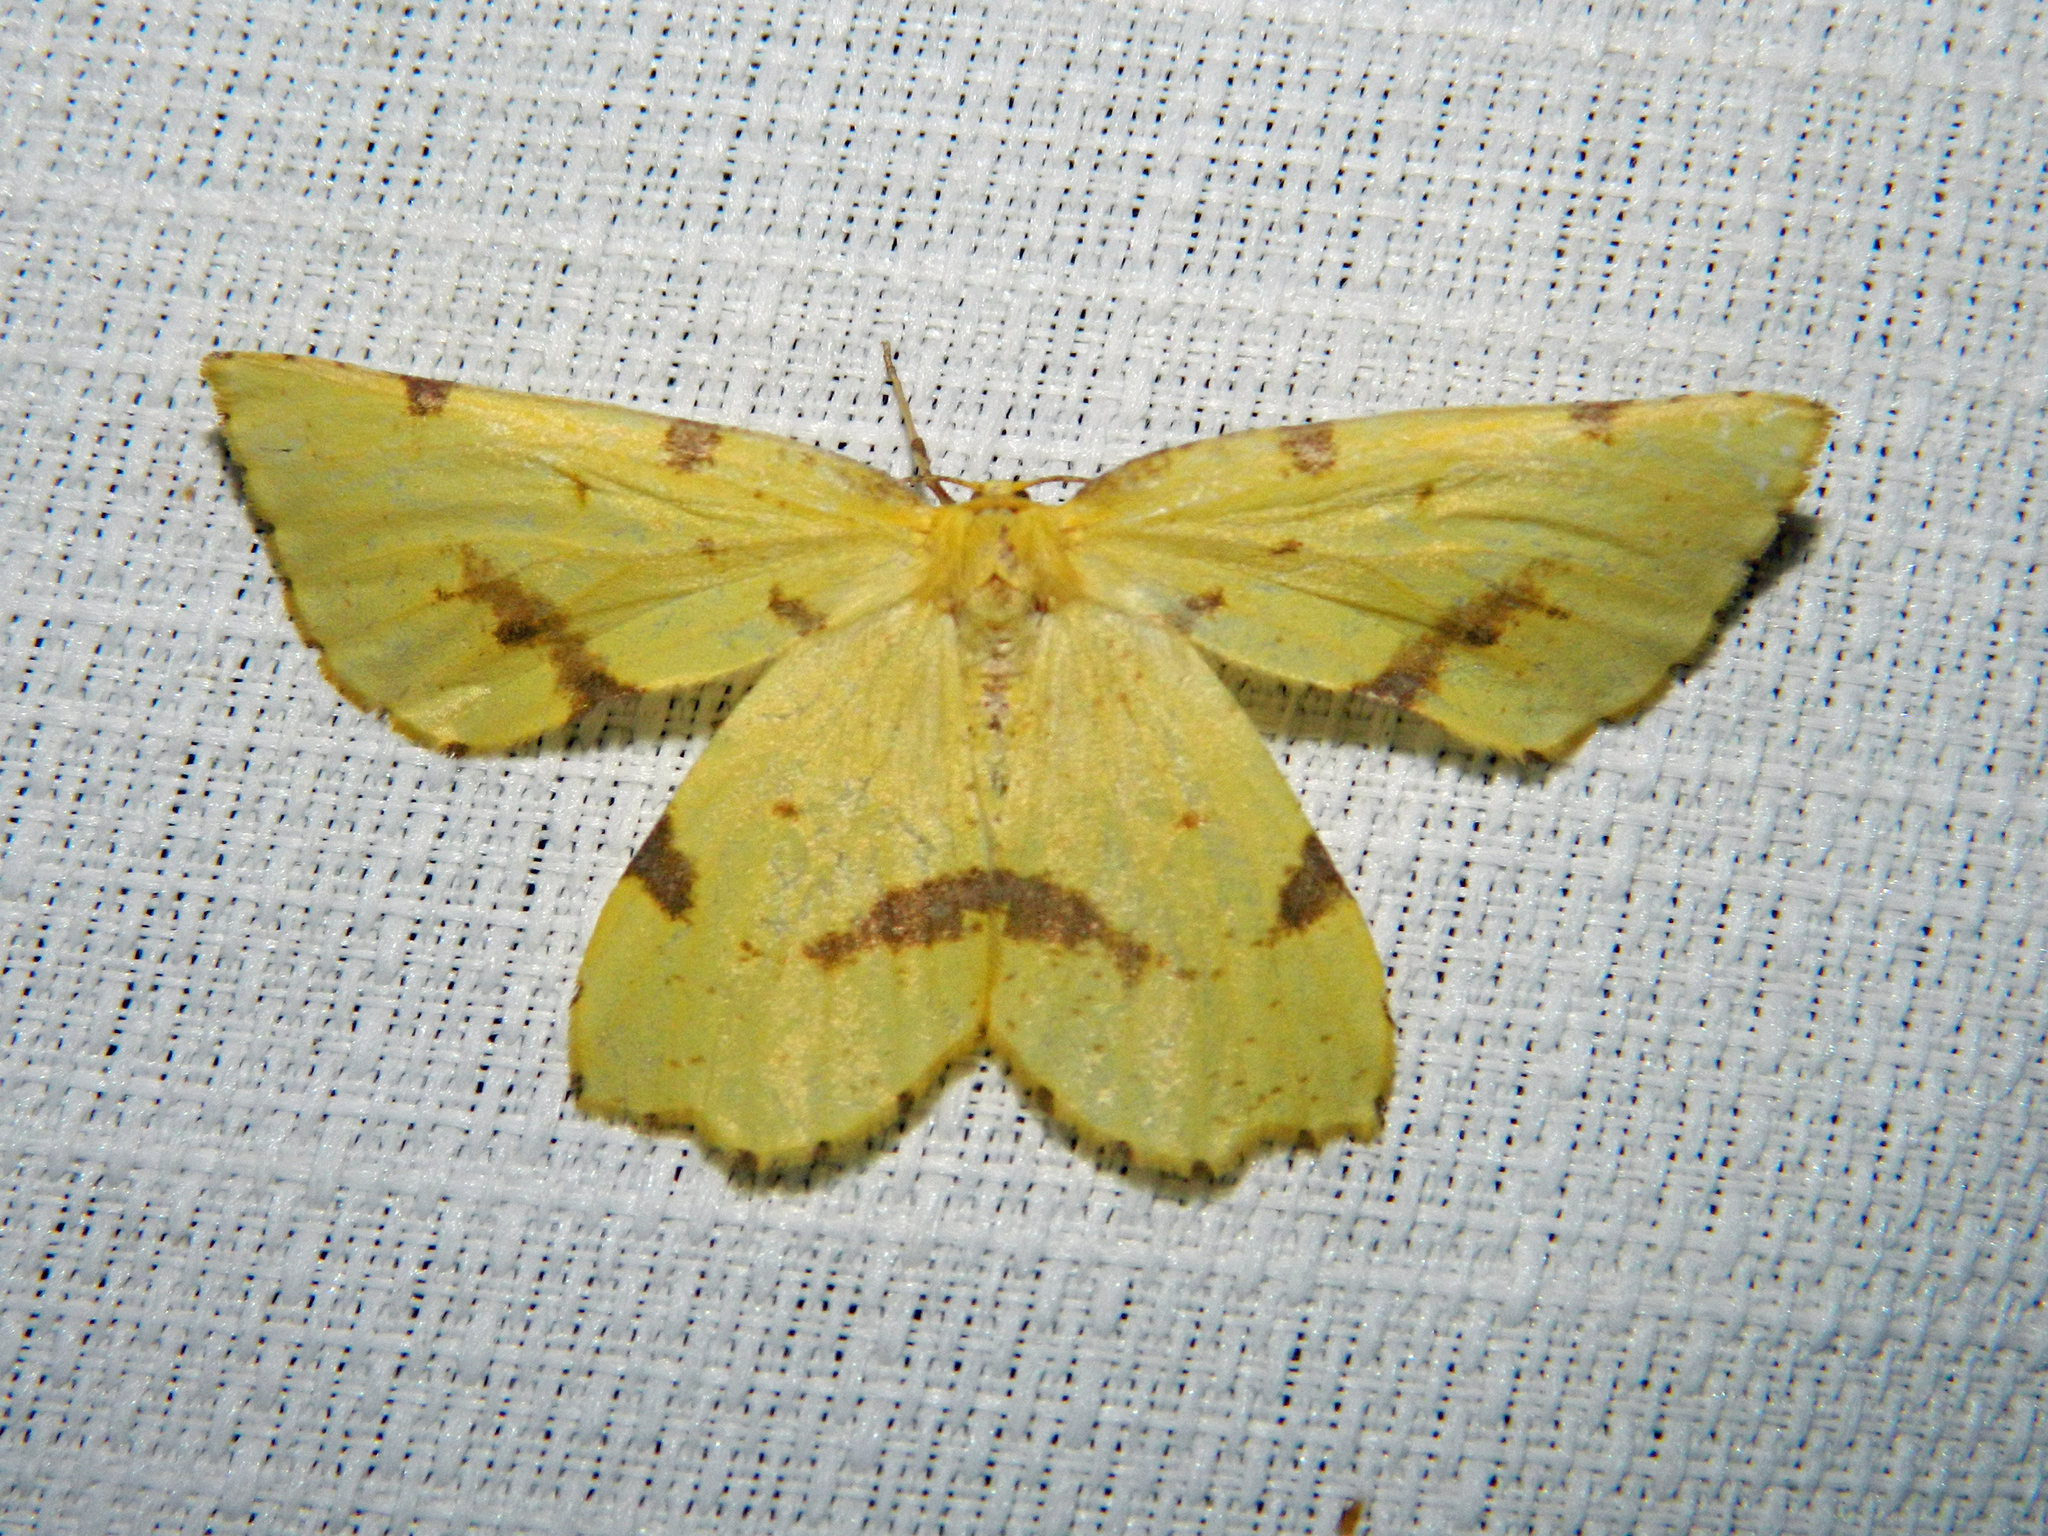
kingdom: Animalia
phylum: Arthropoda
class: Insecta
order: Lepidoptera
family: Geometridae
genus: Xanthotype
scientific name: Xanthotype
